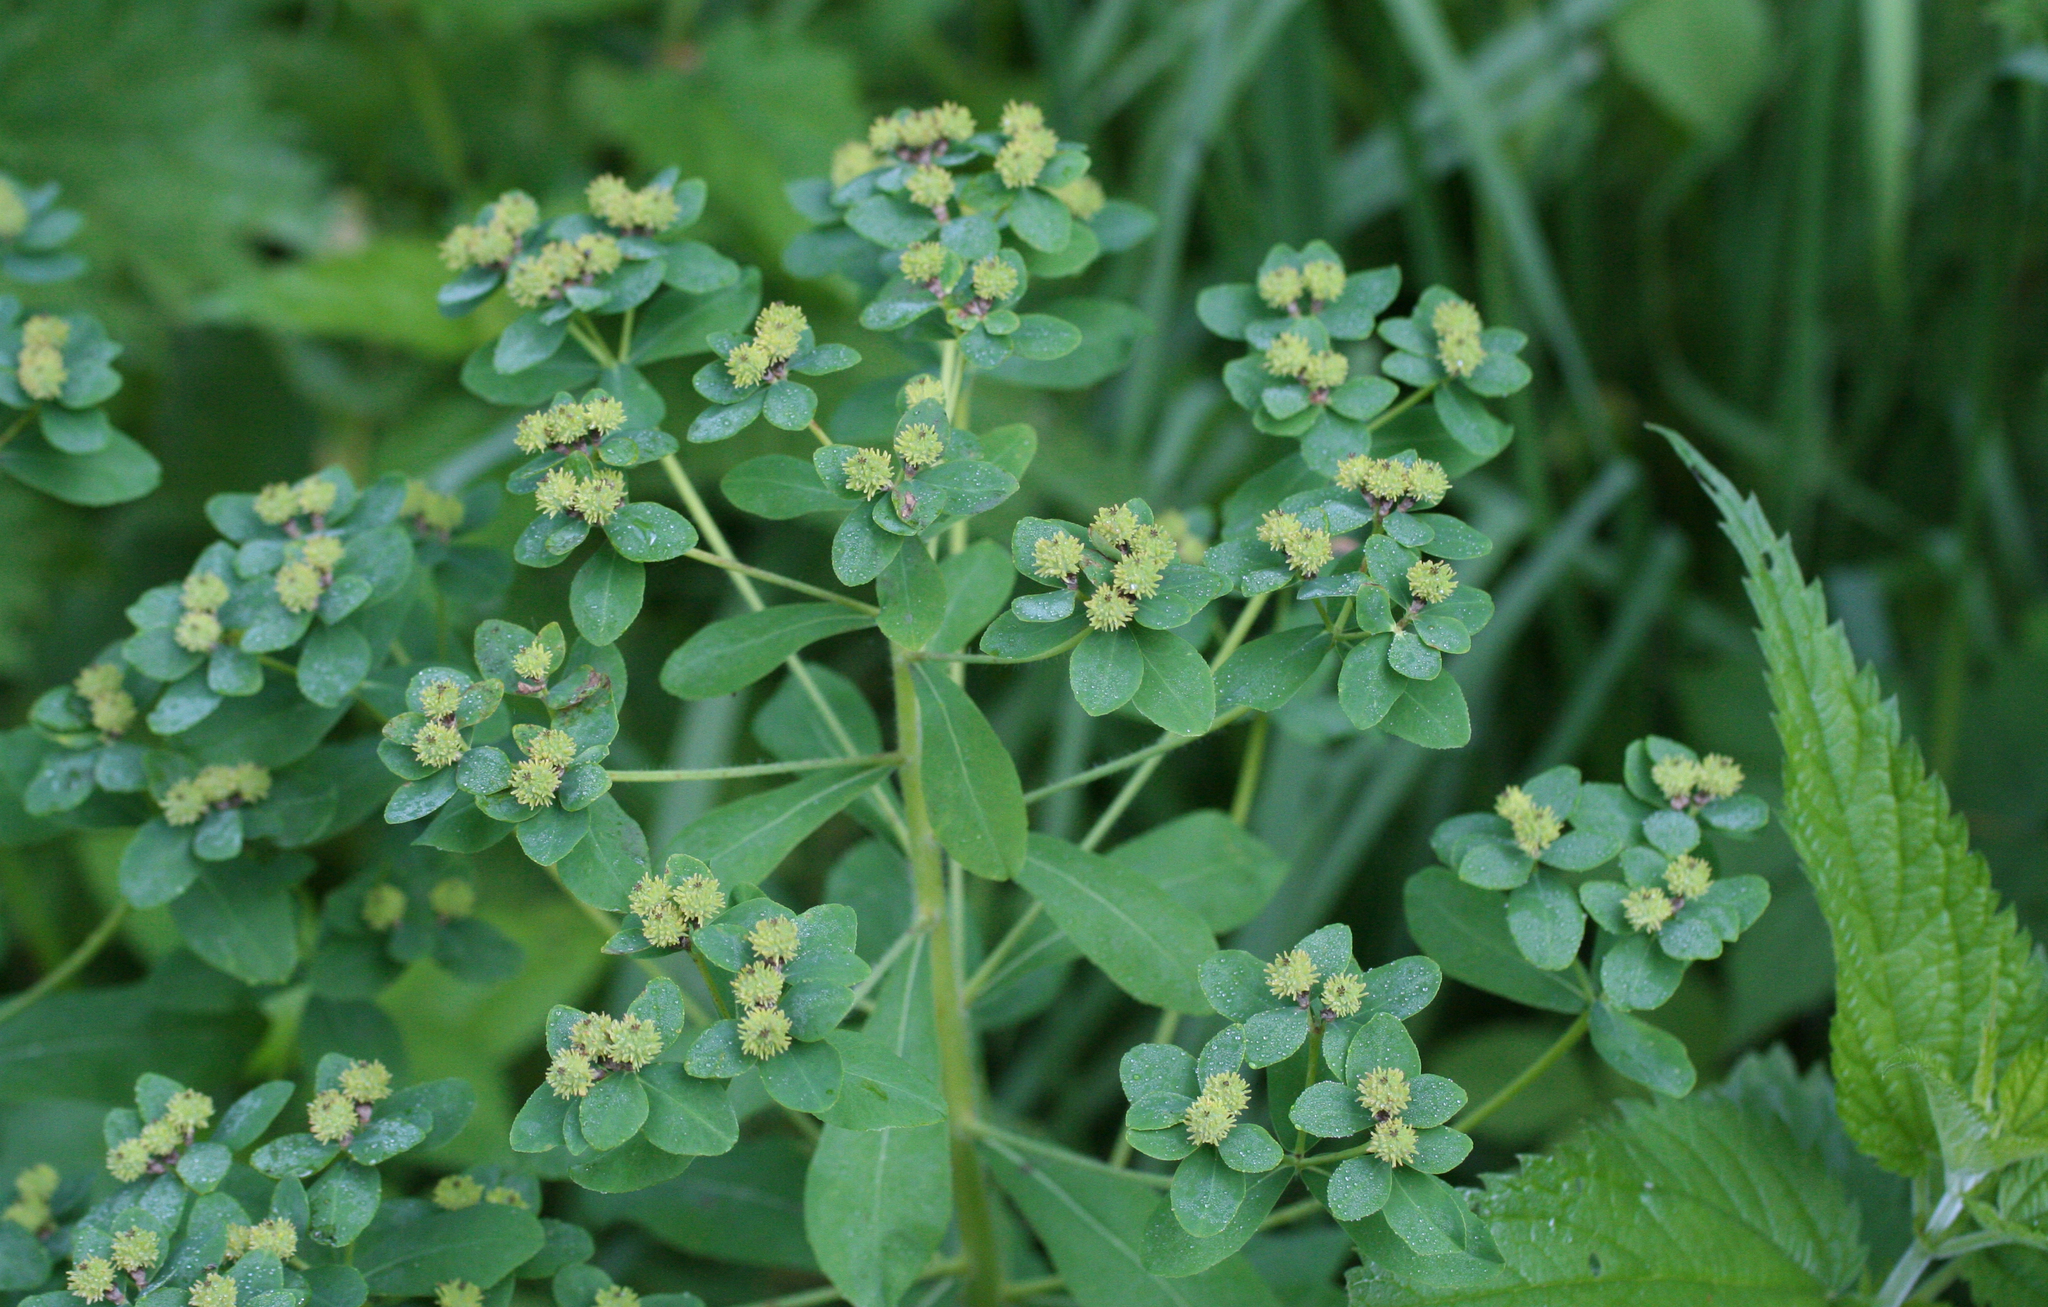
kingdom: Plantae
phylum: Tracheophyta
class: Magnoliopsida
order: Malpighiales
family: Euphorbiaceae
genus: Euphorbia
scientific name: Euphorbia pilosa
